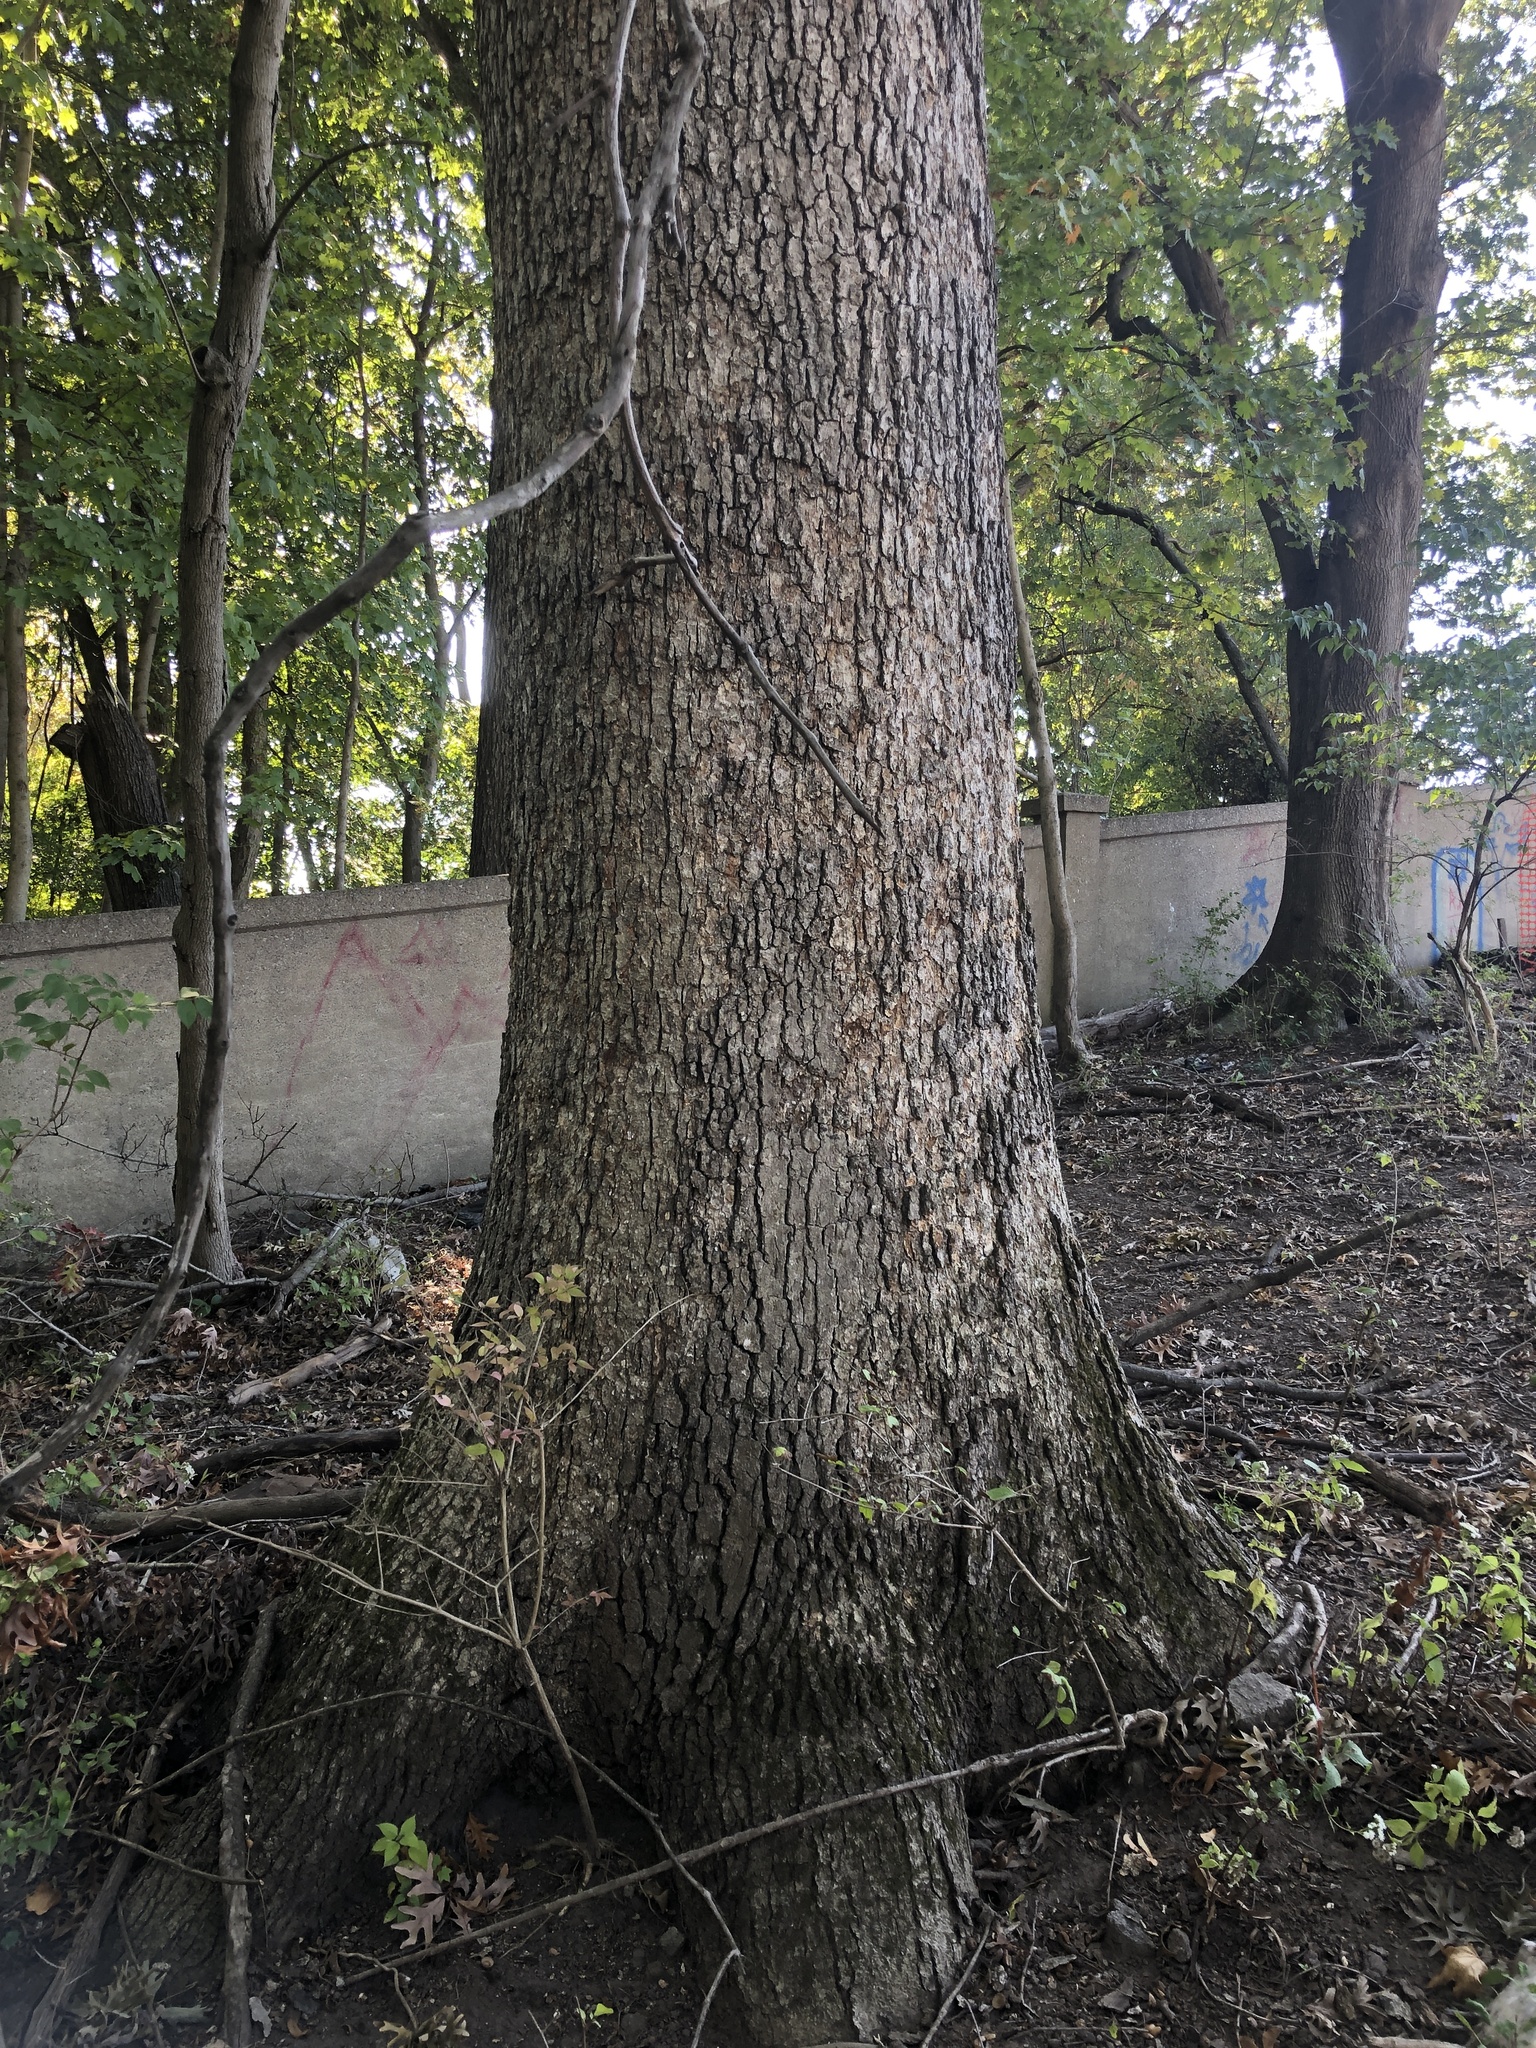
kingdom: Plantae
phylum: Tracheophyta
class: Magnoliopsida
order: Fagales
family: Fagaceae
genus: Quercus
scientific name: Quercus alba
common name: White oak
